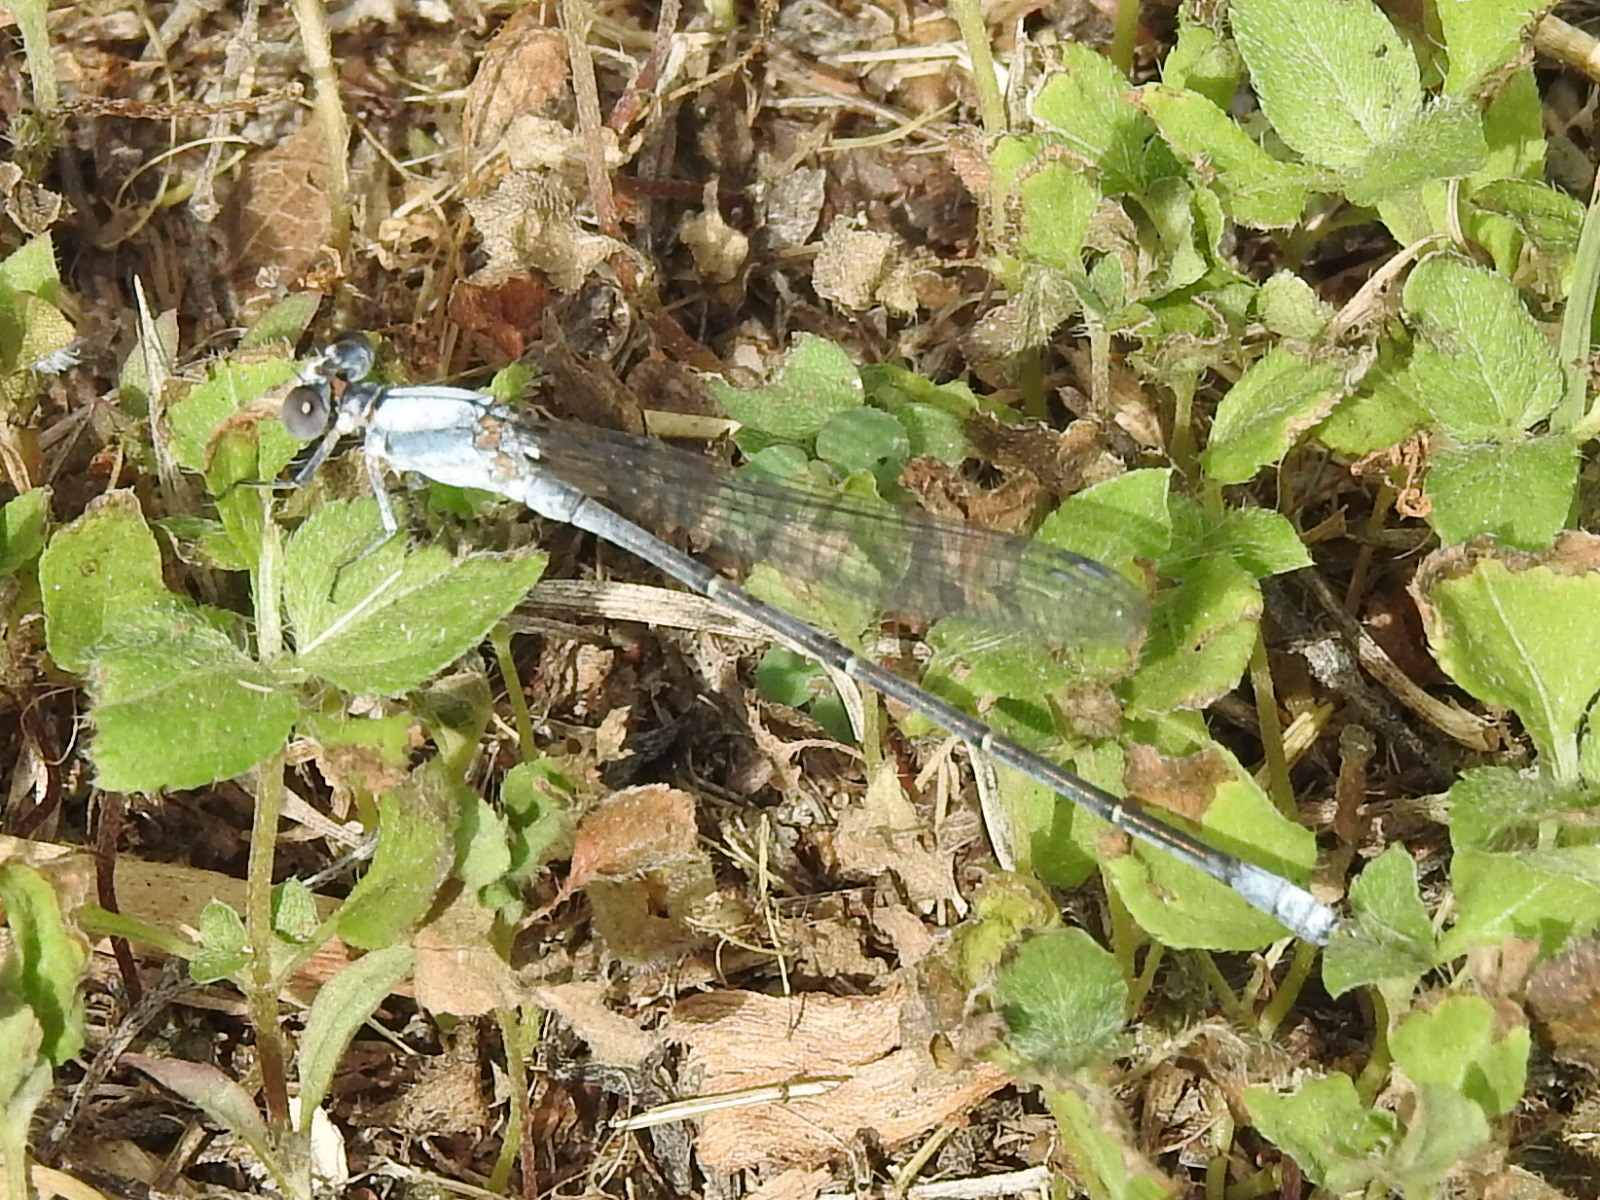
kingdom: Animalia
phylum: Arthropoda
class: Insecta
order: Odonata
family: Coenagrionidae
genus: Argia
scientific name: Argia moesta
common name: Powdered dancer
